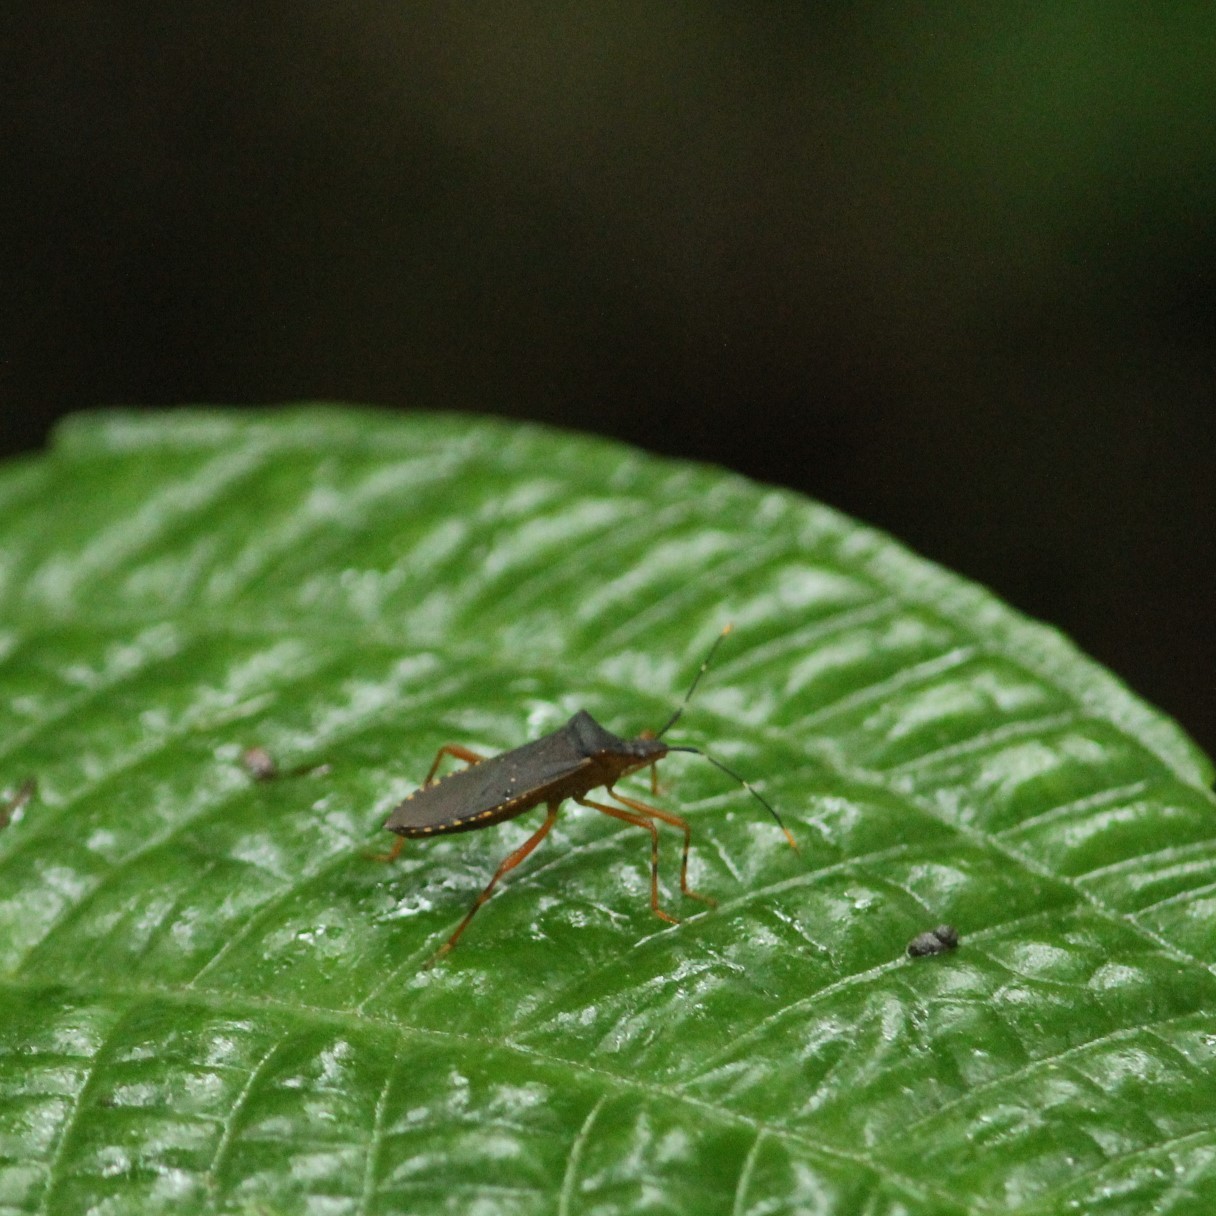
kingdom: Animalia
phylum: Arthropoda
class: Insecta
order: Hemiptera
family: Coreidae
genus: Leptoscelis
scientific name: Leptoscelis elongator
